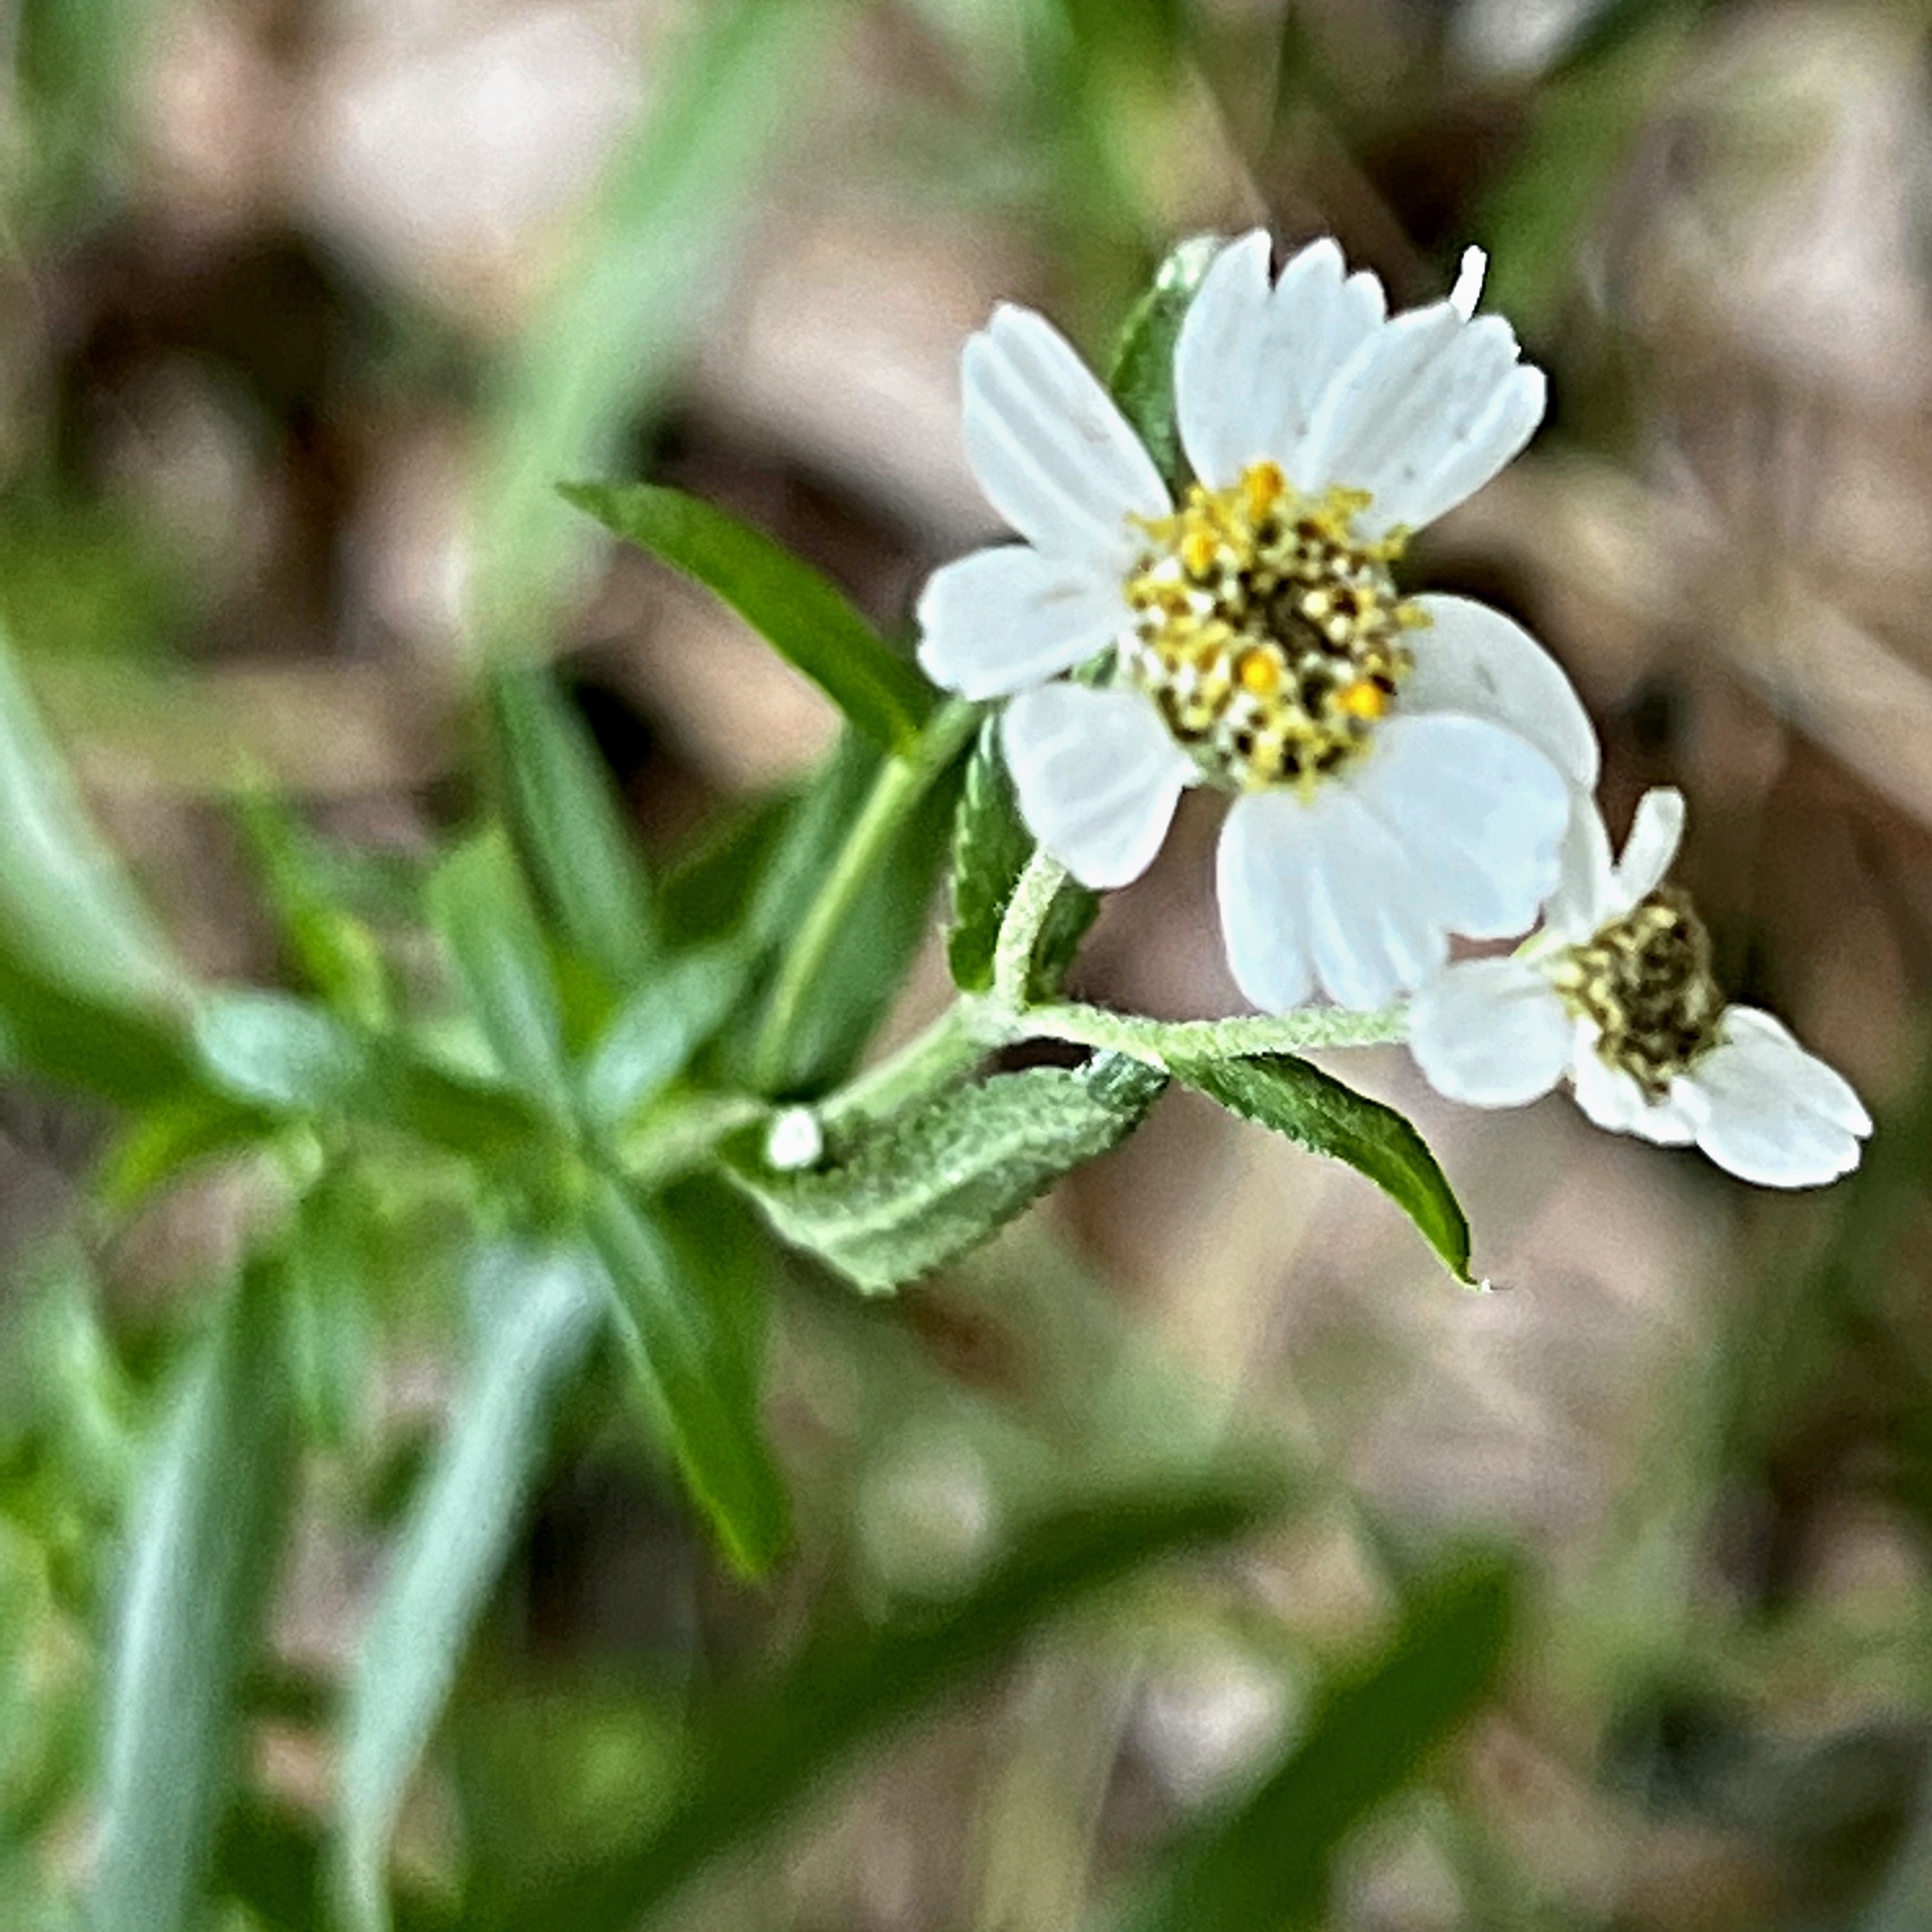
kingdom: Plantae
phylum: Tracheophyta
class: Magnoliopsida
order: Asterales
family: Asteraceae
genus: Achillea
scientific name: Achillea ptarmica
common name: Sneezeweed
